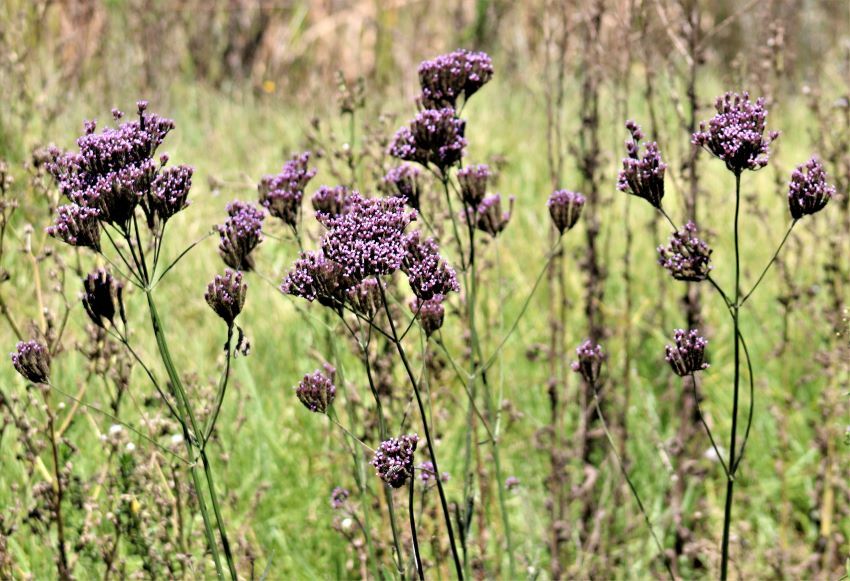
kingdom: Plantae
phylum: Tracheophyta
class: Magnoliopsida
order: Lamiales
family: Verbenaceae
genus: Verbena
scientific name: Verbena bonariensis
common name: Purpletop vervain
